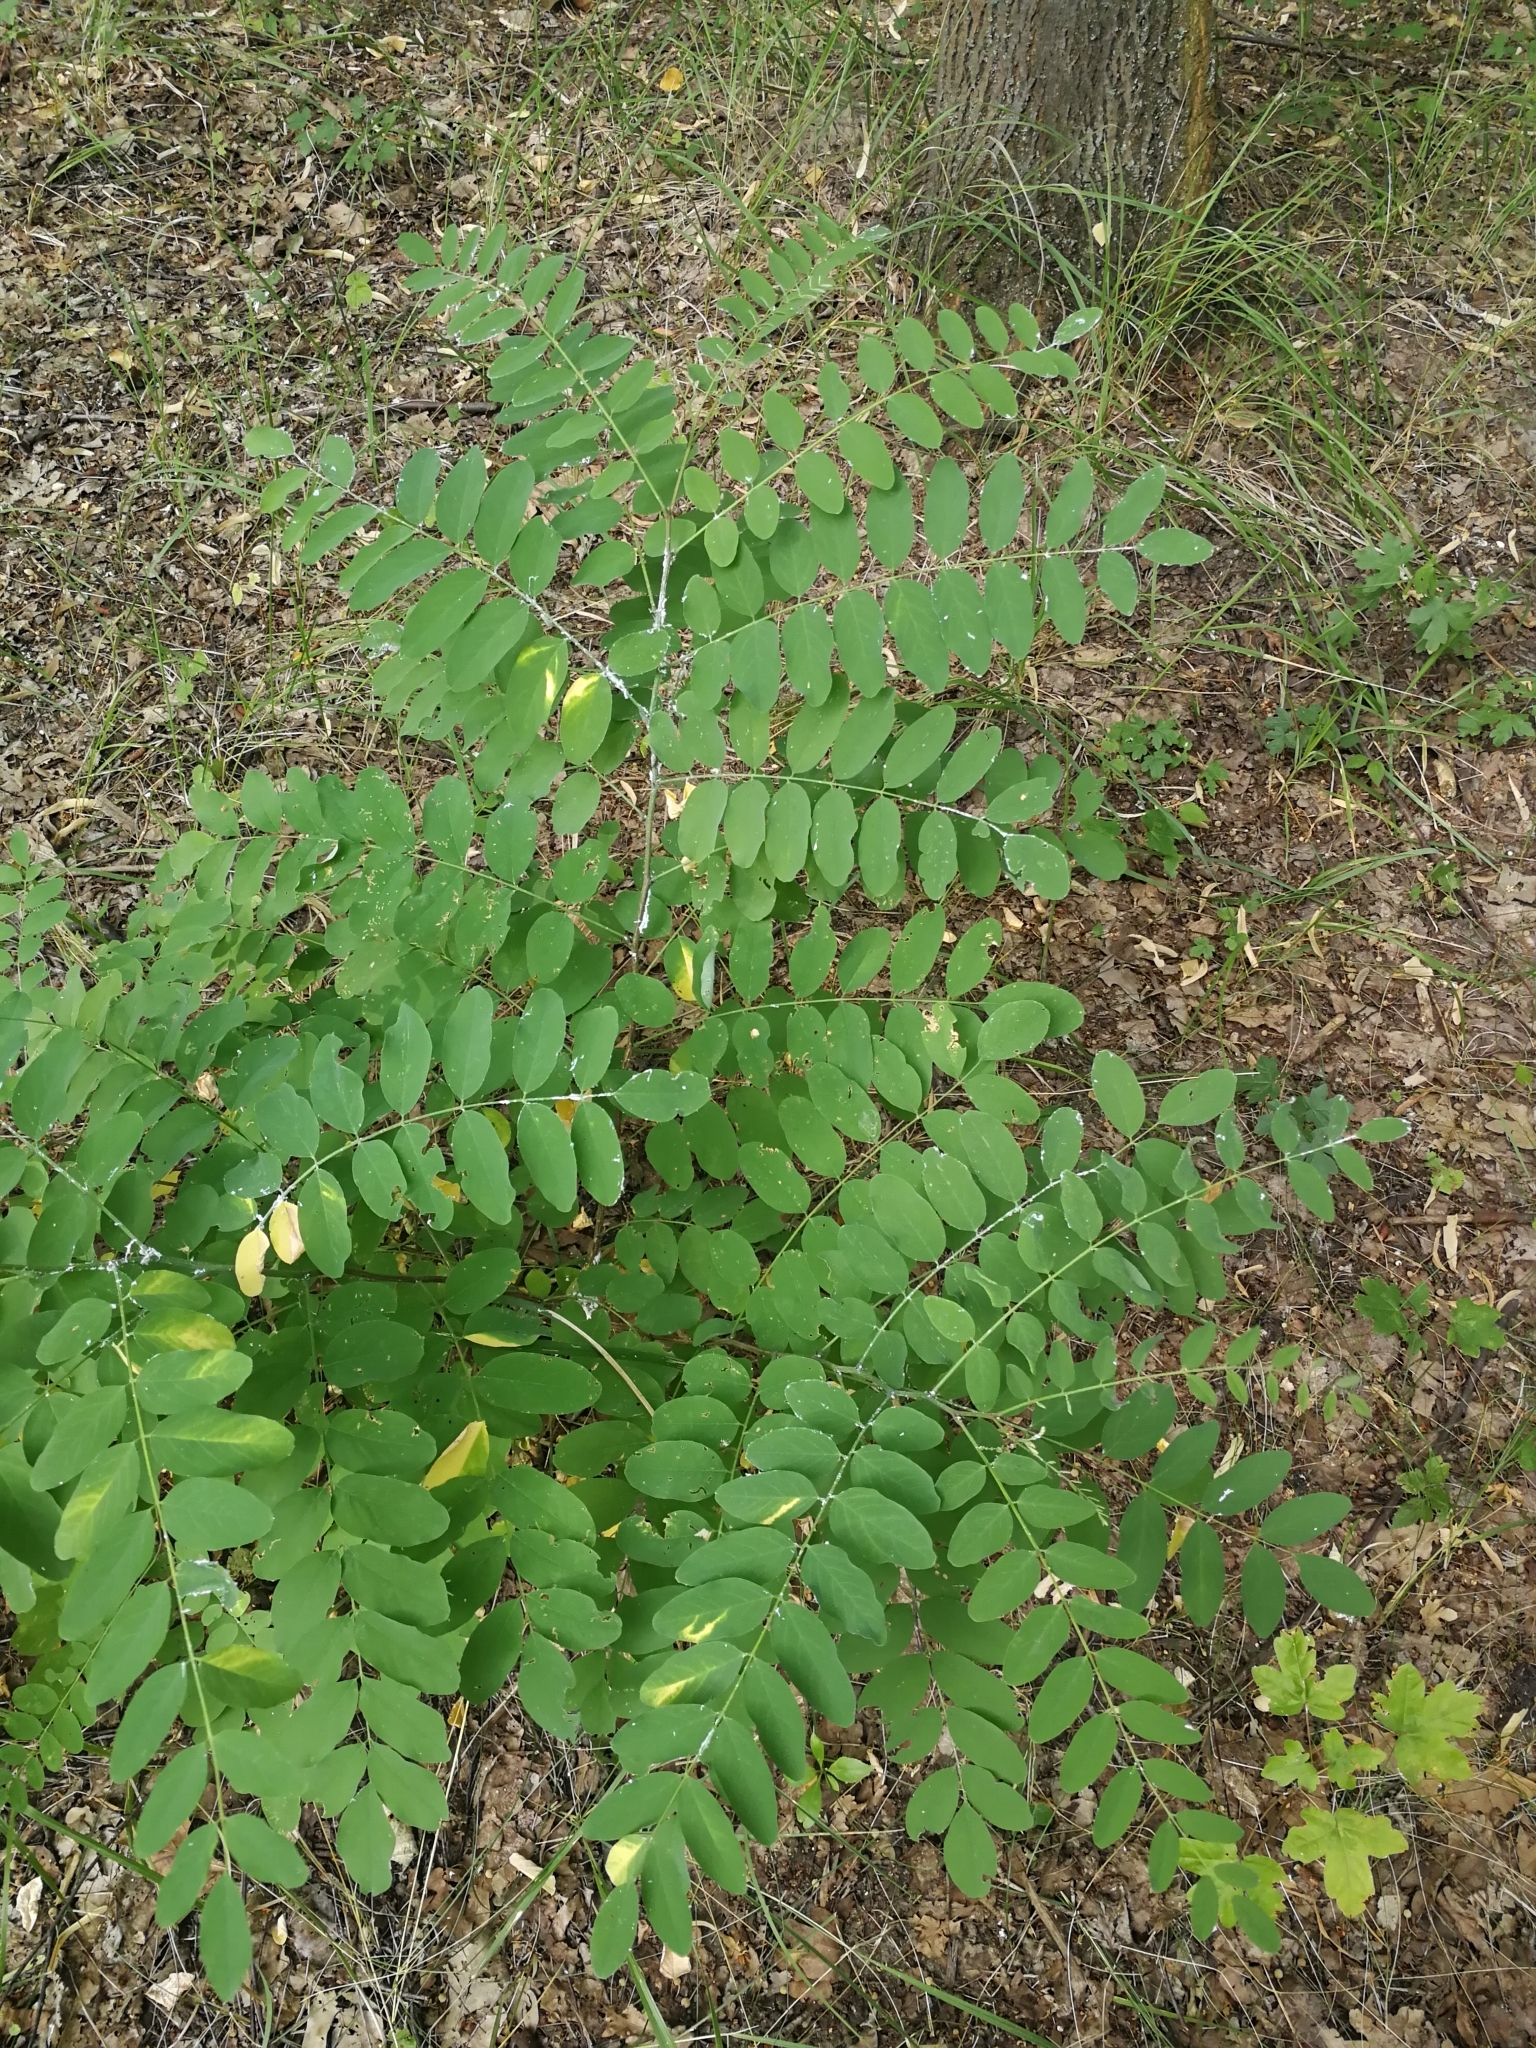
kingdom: Plantae
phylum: Tracheophyta
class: Magnoliopsida
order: Fabales
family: Fabaceae
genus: Robinia
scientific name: Robinia pseudoacacia
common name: Black locust
